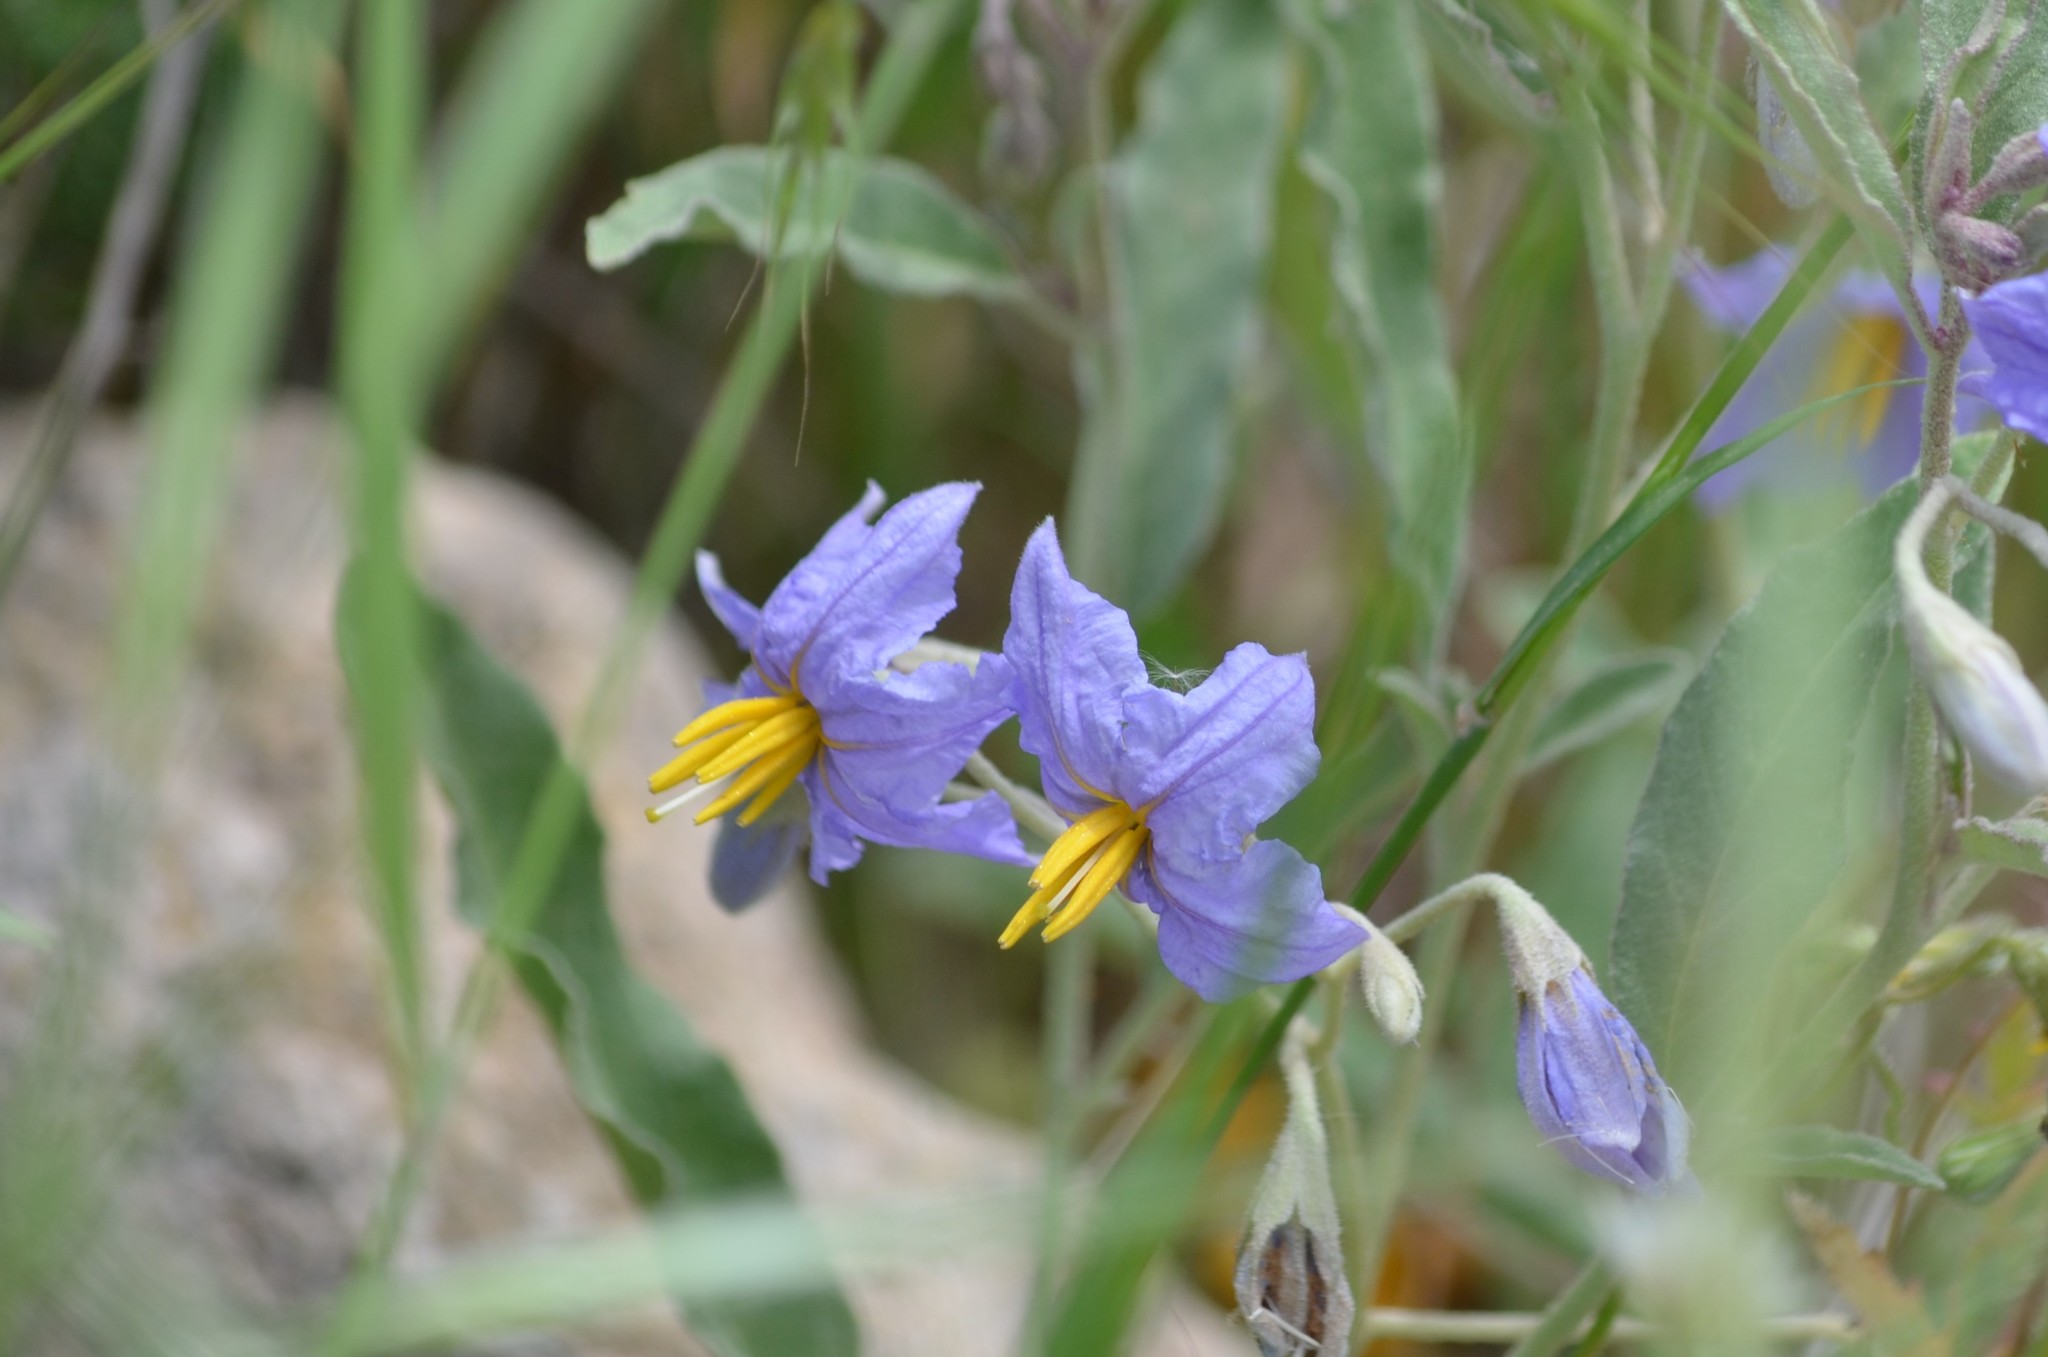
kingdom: Plantae
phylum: Tracheophyta
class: Magnoliopsida
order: Solanales
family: Solanaceae
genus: Solanum
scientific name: Solanum elaeagnifolium
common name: Silverleaf nightshade
